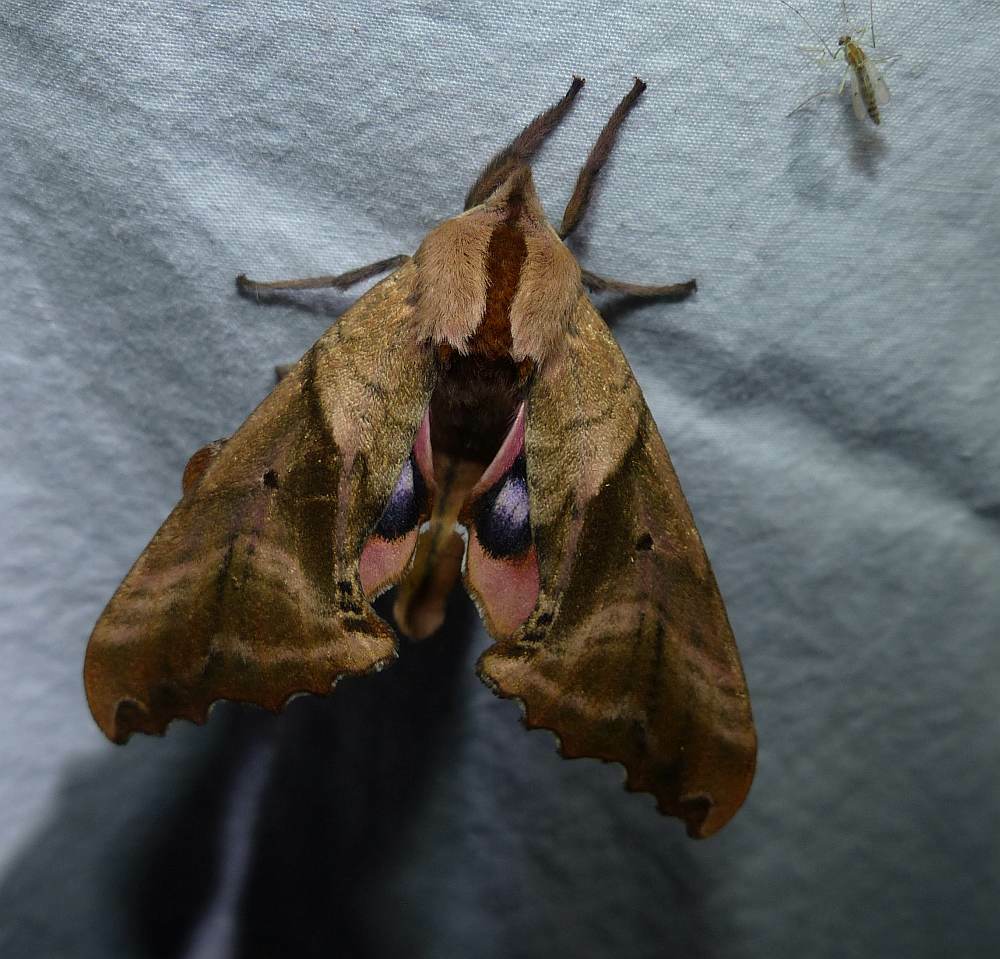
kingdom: Animalia
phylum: Arthropoda
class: Insecta
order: Lepidoptera
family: Sphingidae
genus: Paonias
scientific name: Paonias excaecata
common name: Blind-eyed sphinx
